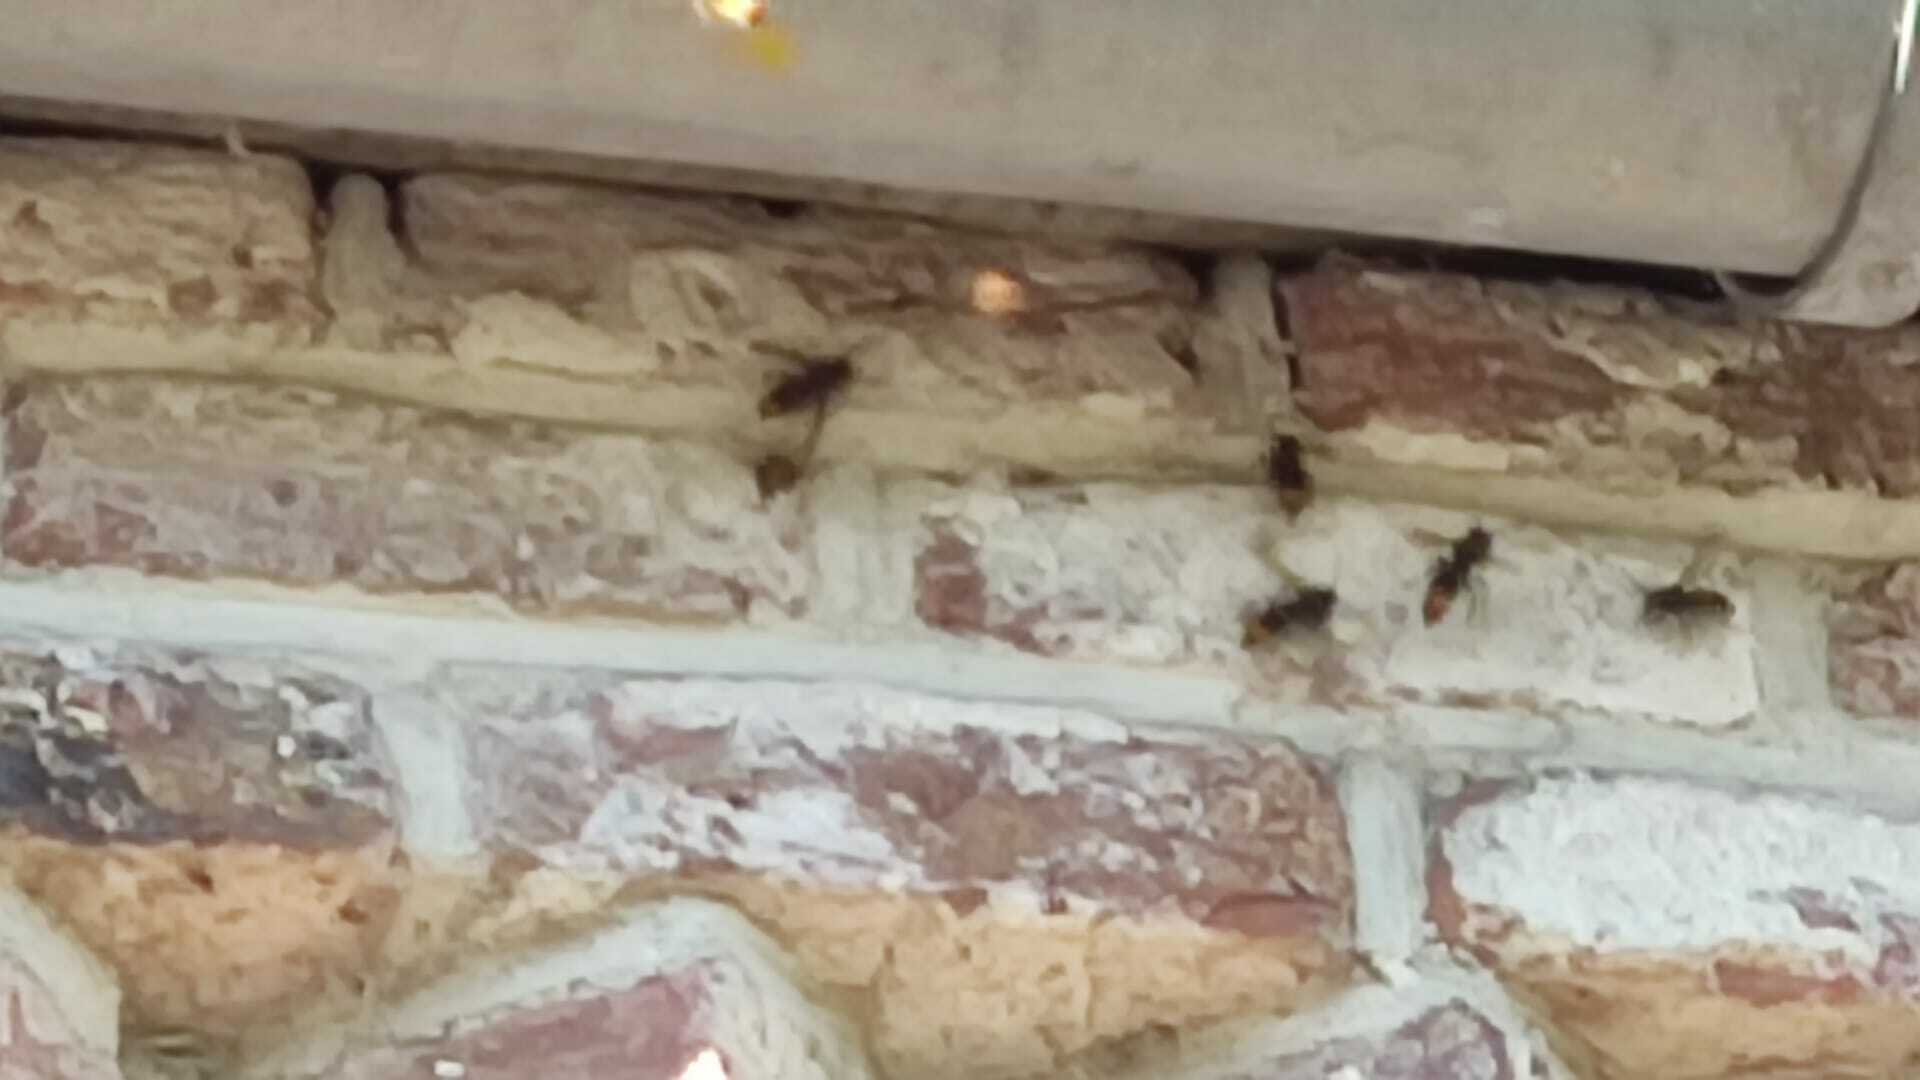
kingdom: Animalia
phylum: Arthropoda
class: Insecta
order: Hymenoptera
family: Vespidae
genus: Vespa
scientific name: Vespa velutina
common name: Asian hornet
